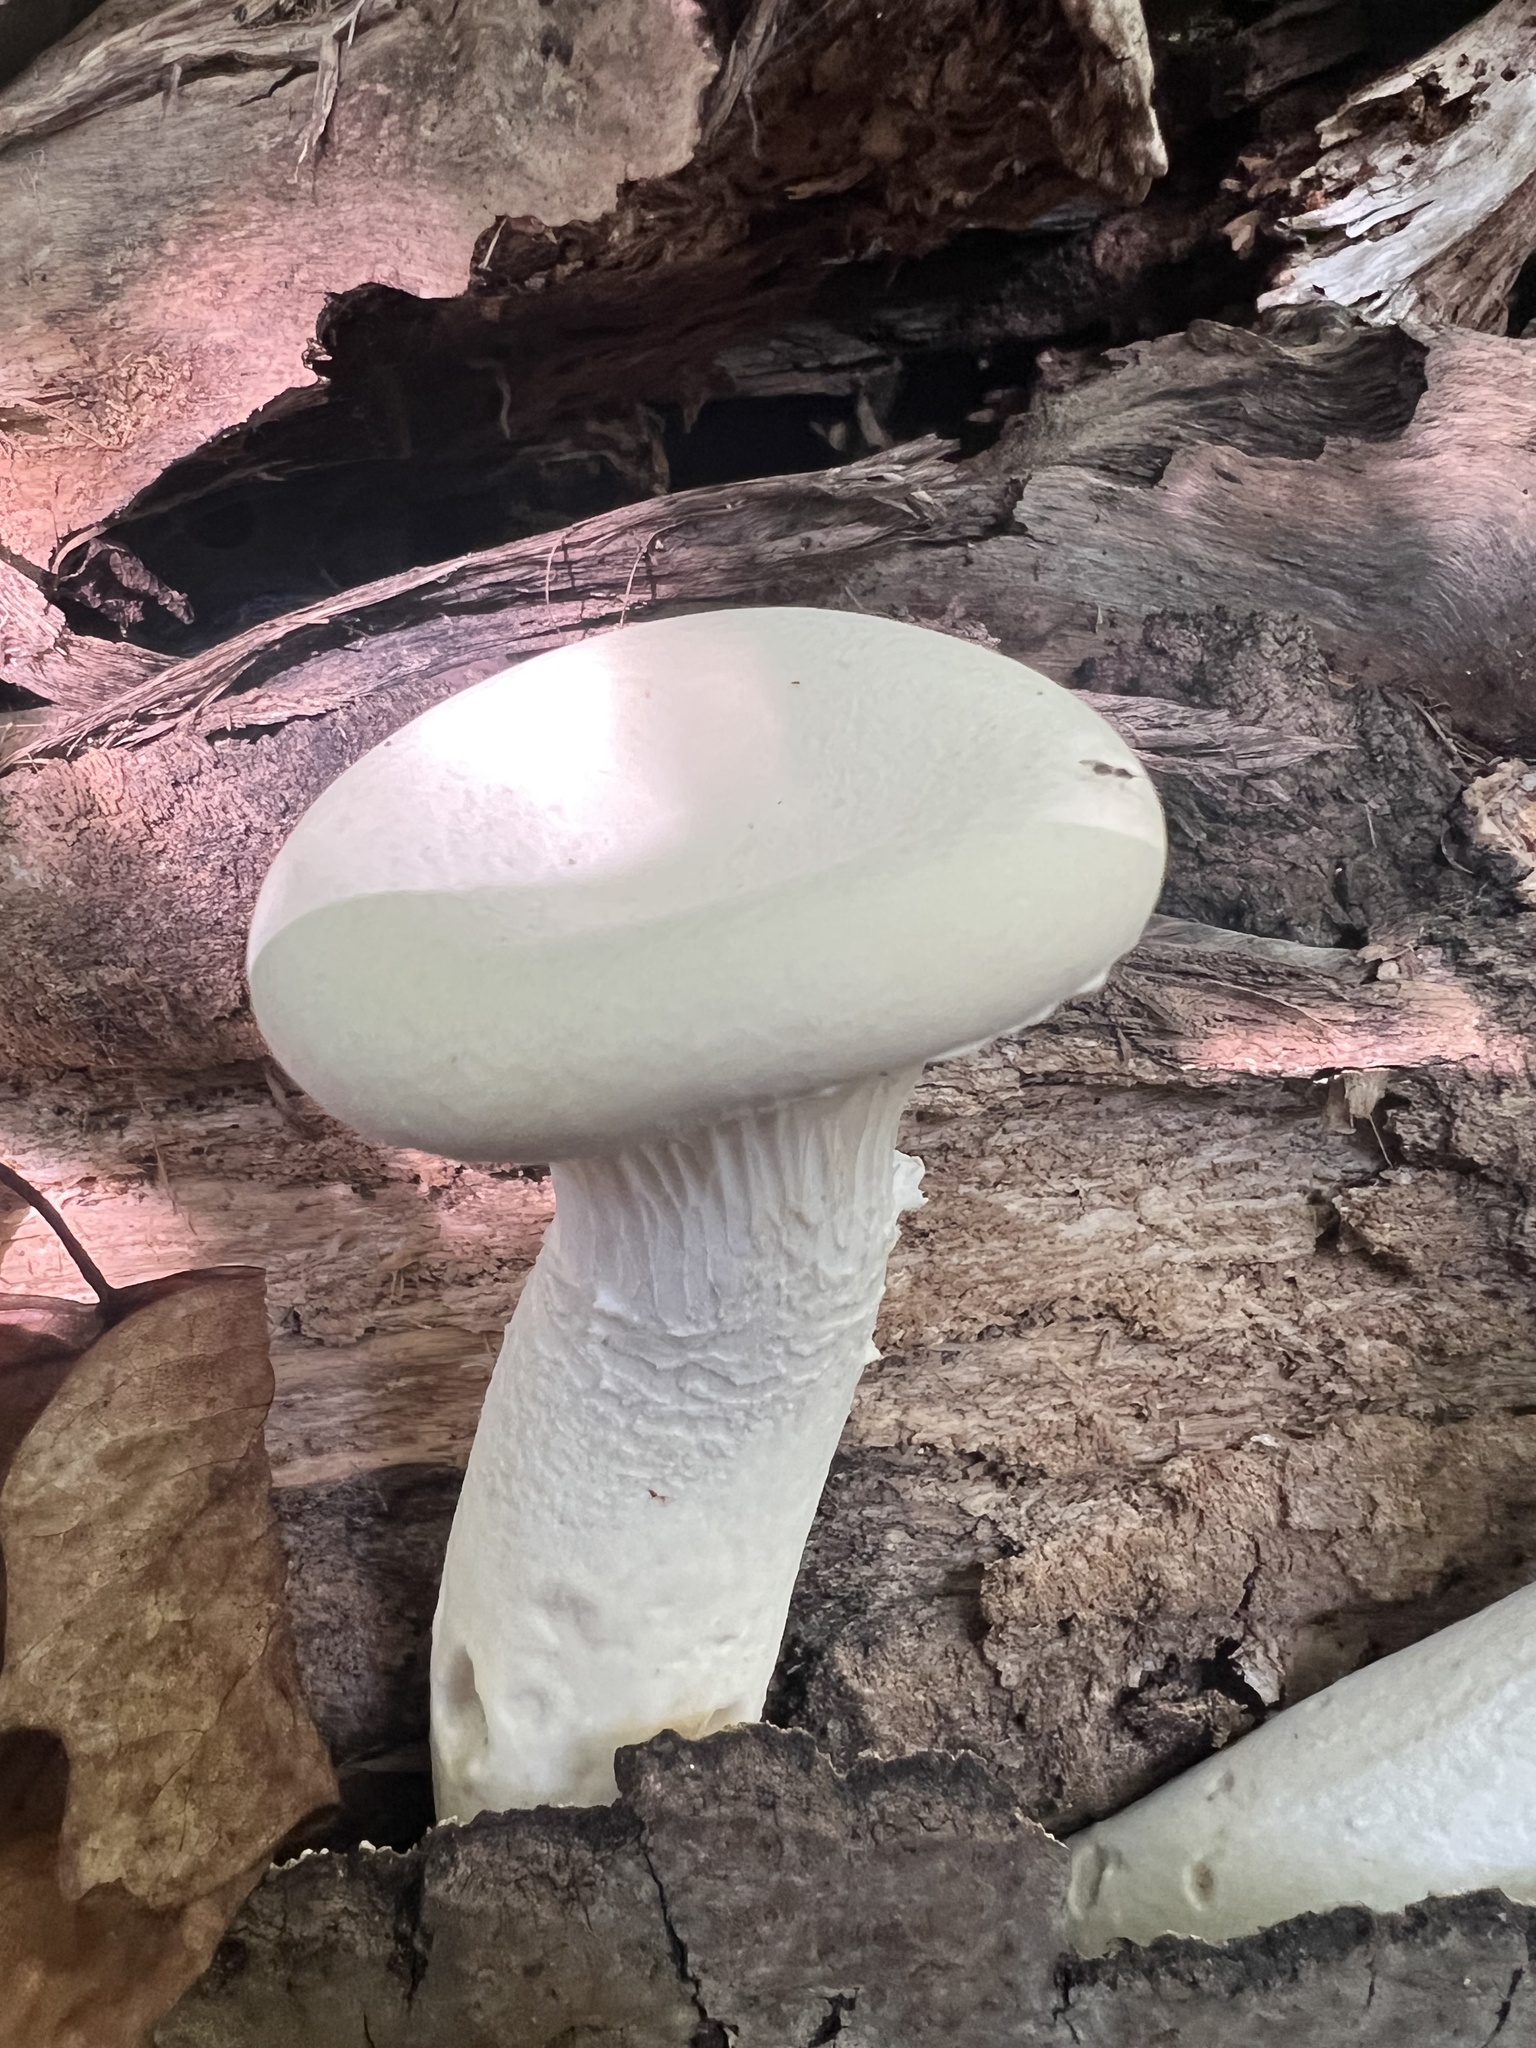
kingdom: Fungi
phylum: Basidiomycota
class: Agaricomycetes
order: Polyporales
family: Polyporaceae
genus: Lentinus
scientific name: Lentinus levis
